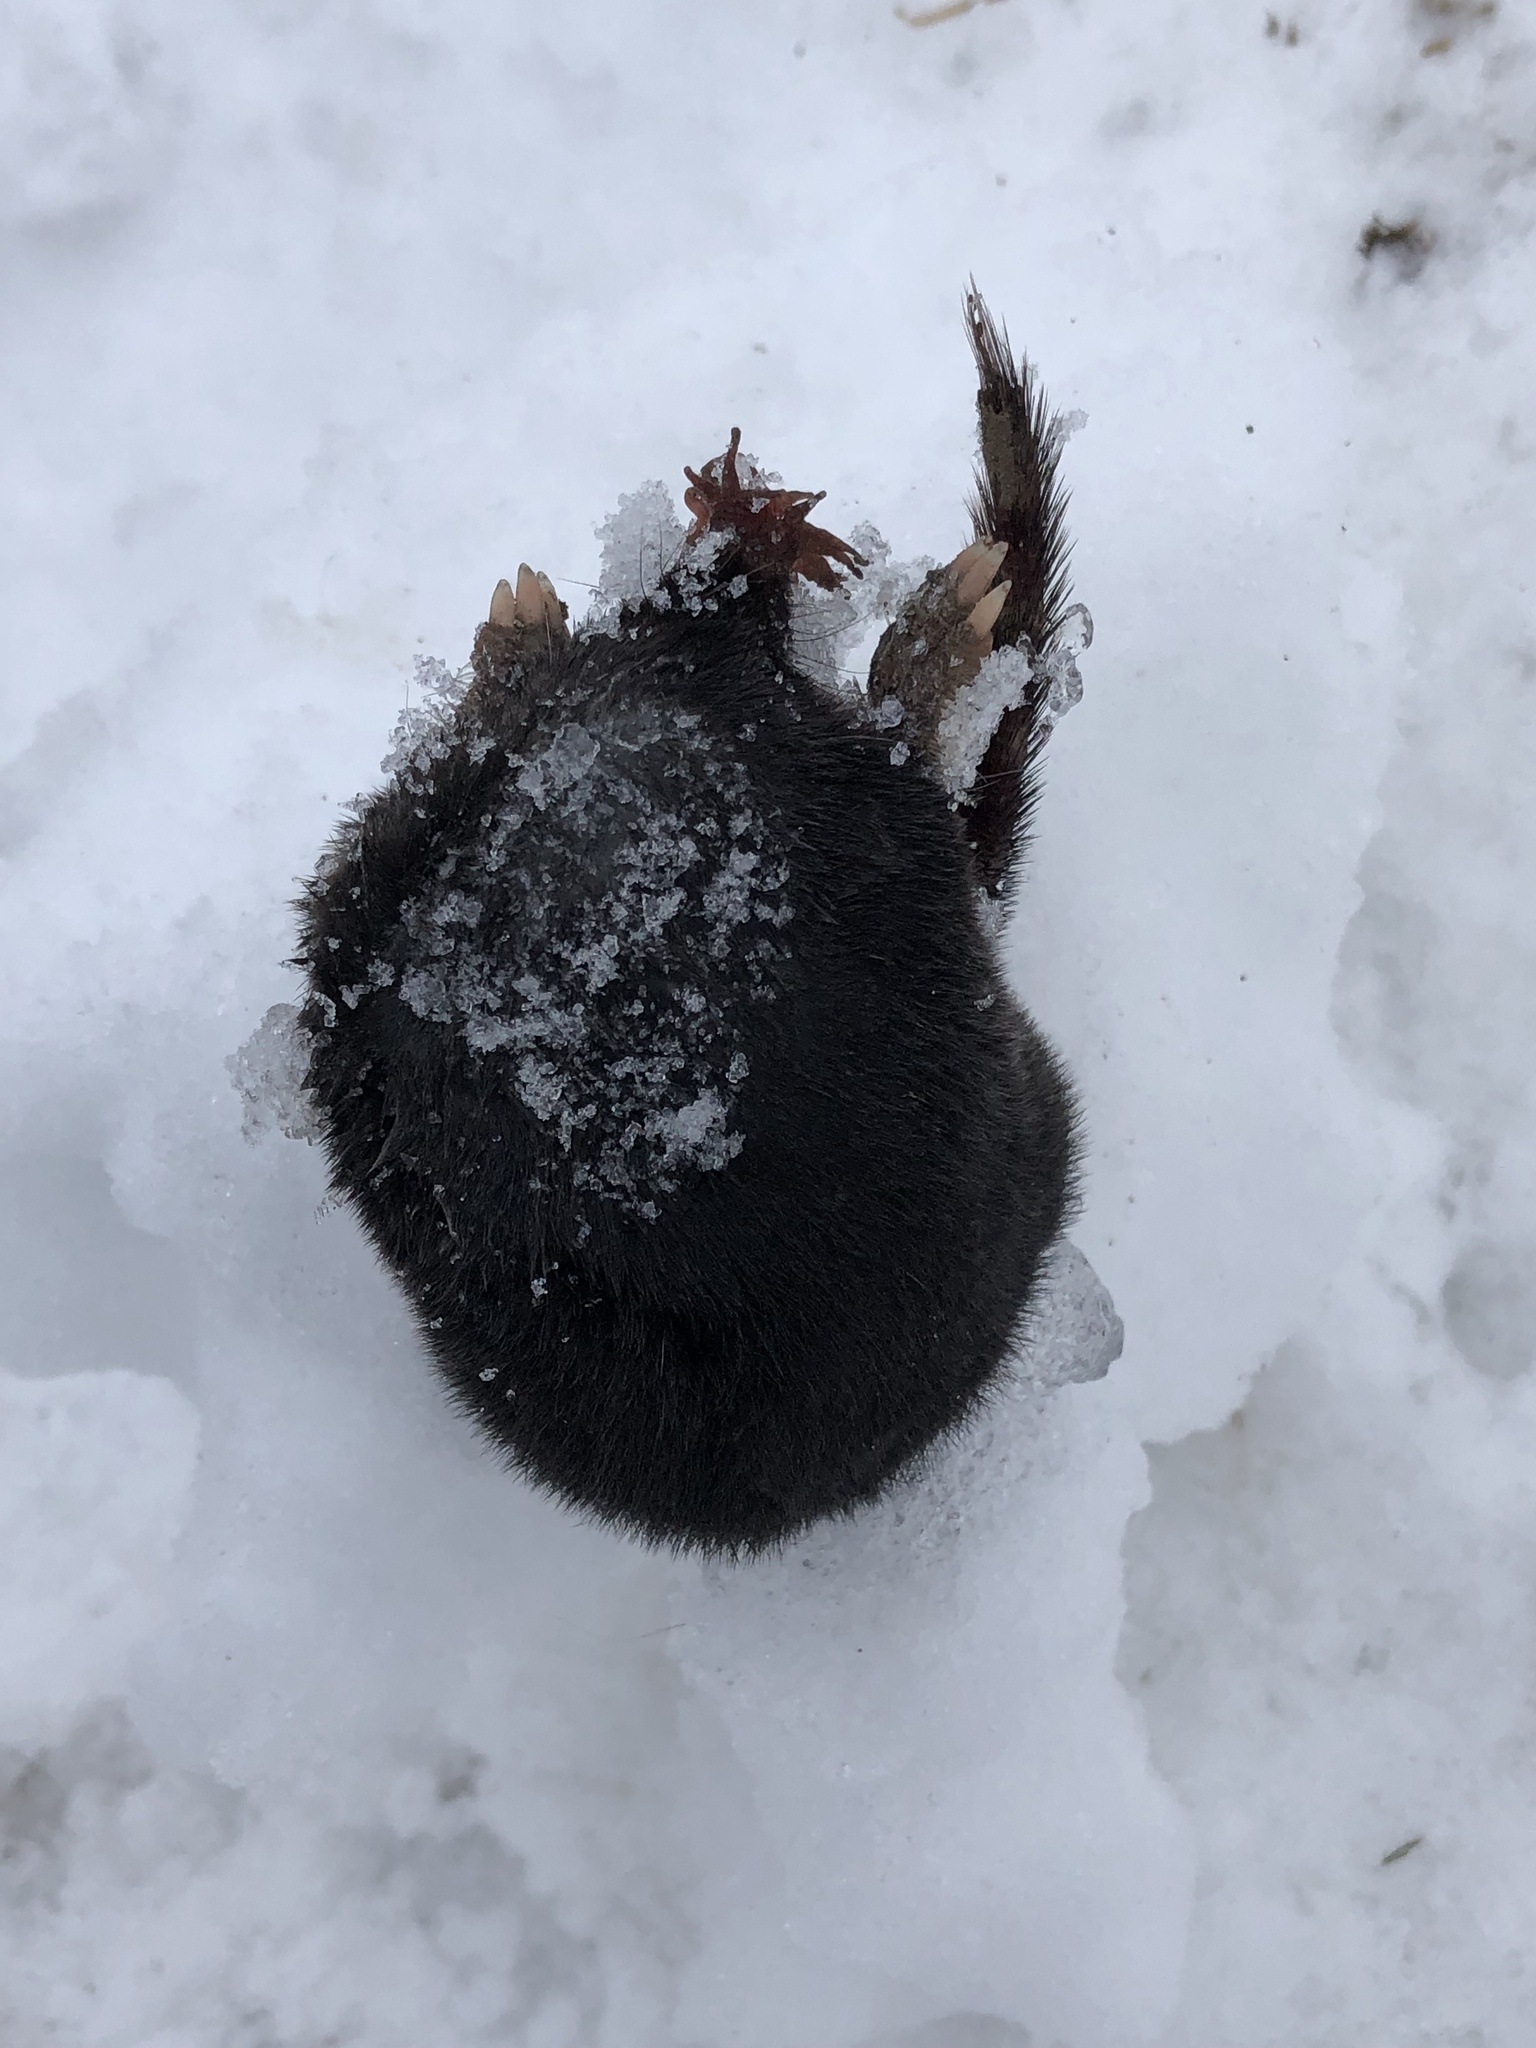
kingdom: Animalia
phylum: Chordata
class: Mammalia
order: Soricomorpha
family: Talpidae
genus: Condylura
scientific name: Condylura cristata
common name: Star-nosed mole
